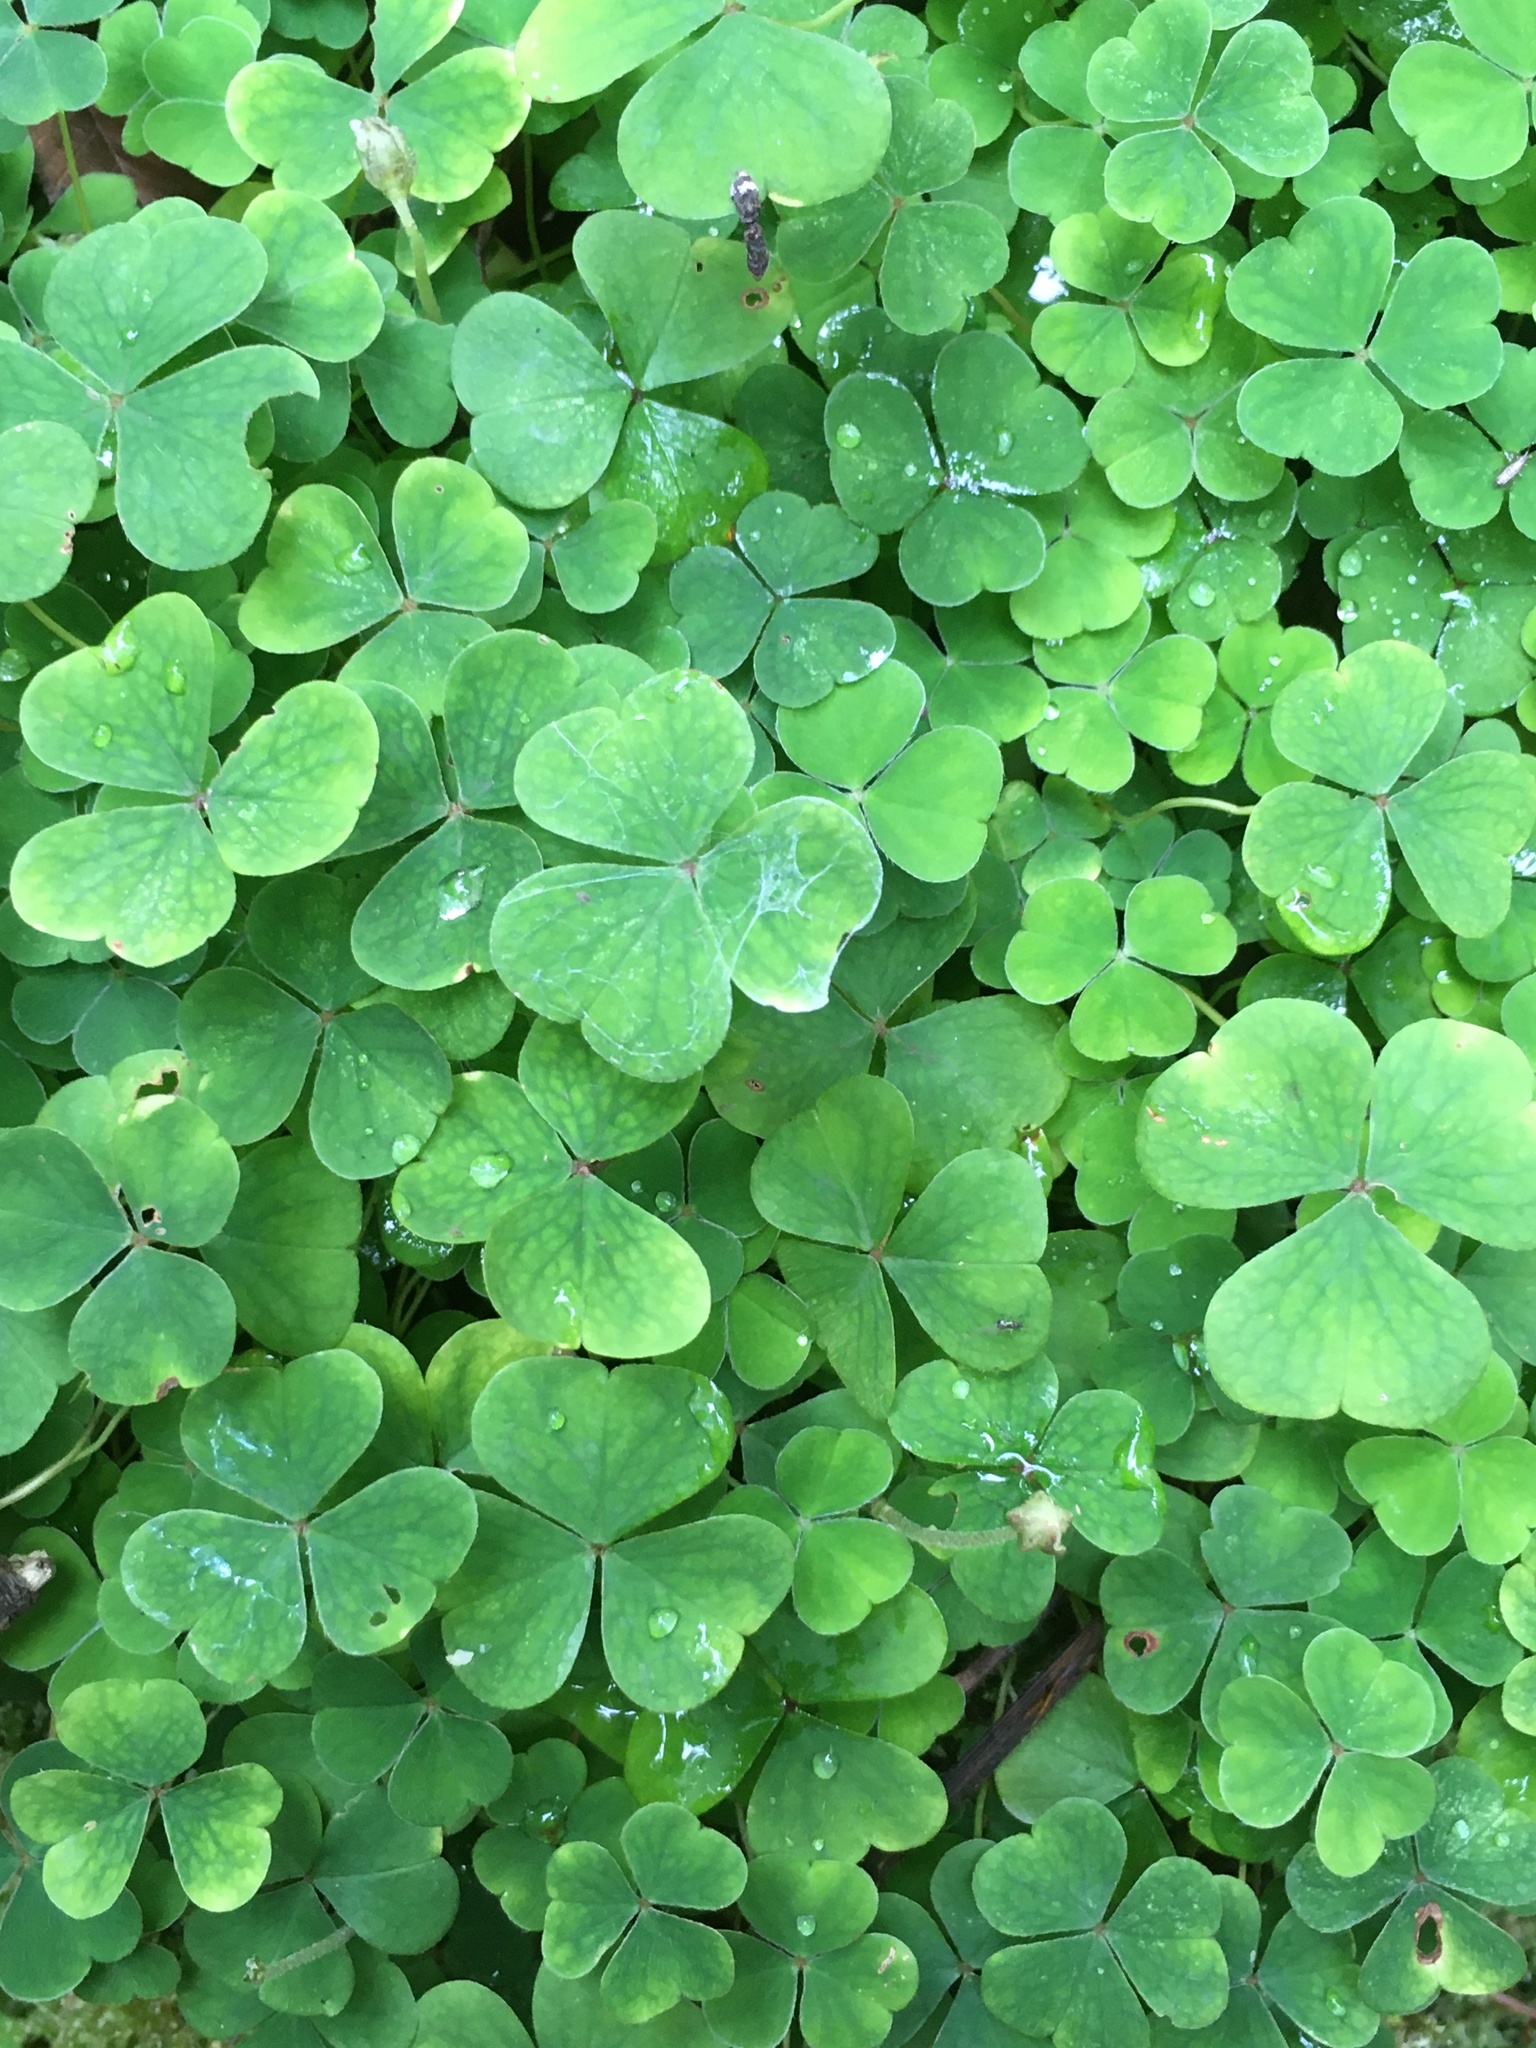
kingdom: Plantae
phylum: Tracheophyta
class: Magnoliopsida
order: Oxalidales
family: Oxalidaceae
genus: Oxalis
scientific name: Oxalis acetosella
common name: Wood-sorrel
